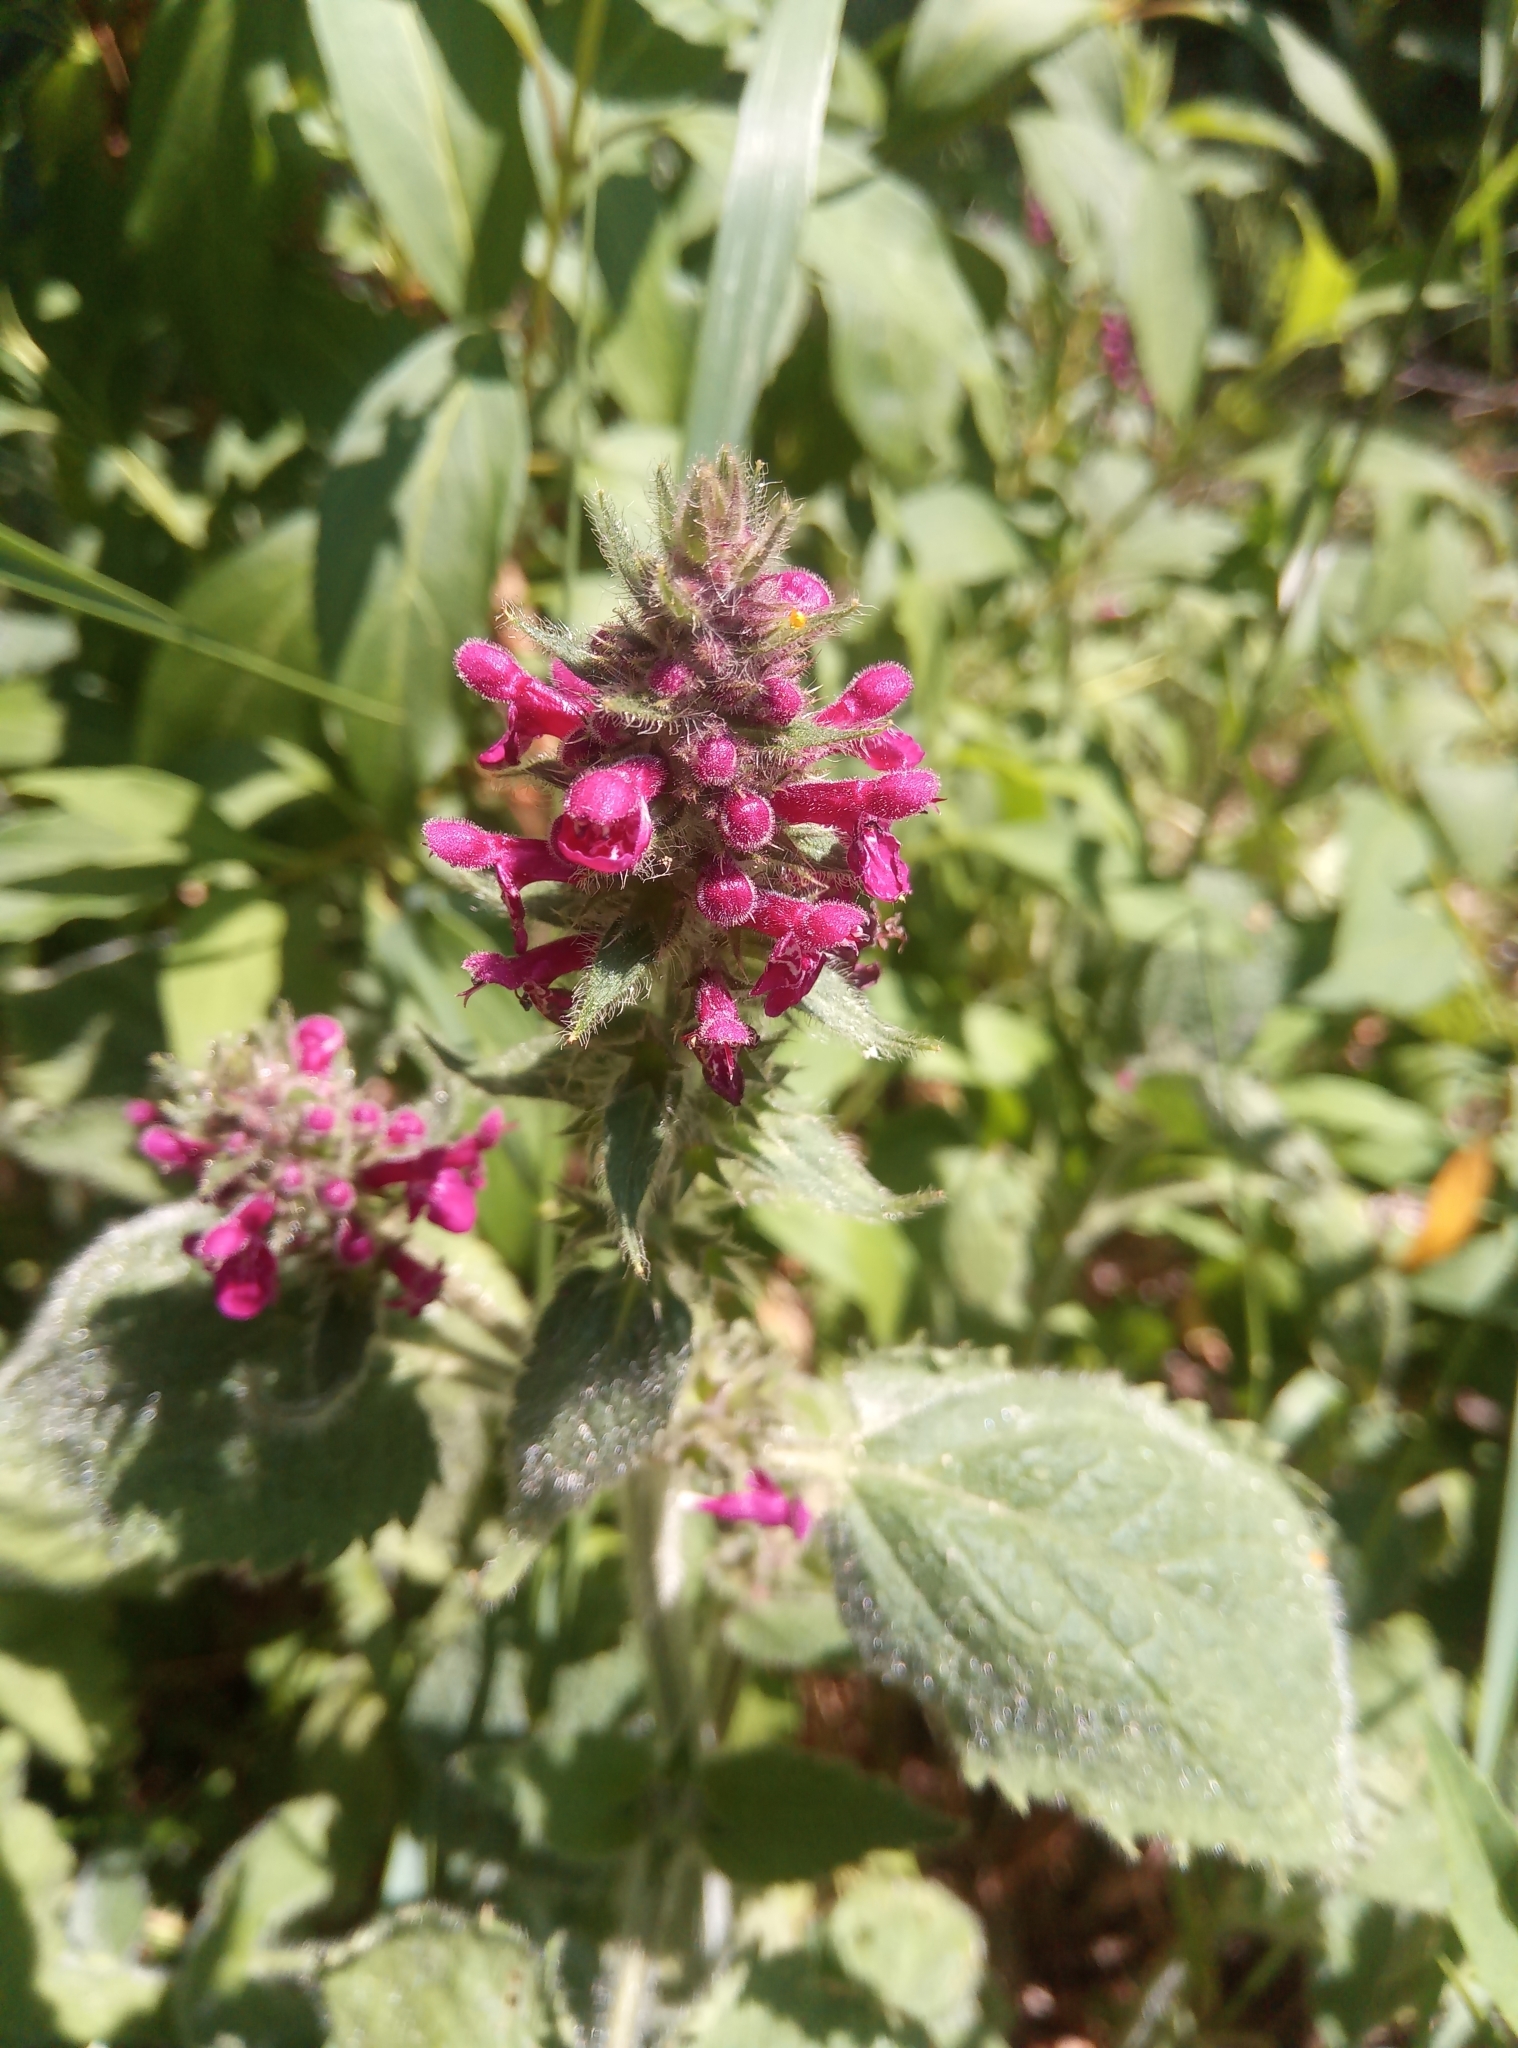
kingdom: Plantae
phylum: Tracheophyta
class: Magnoliopsida
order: Lamiales
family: Lamiaceae
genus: Stachys
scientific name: Stachys sylvatica
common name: Hedge woundwort
